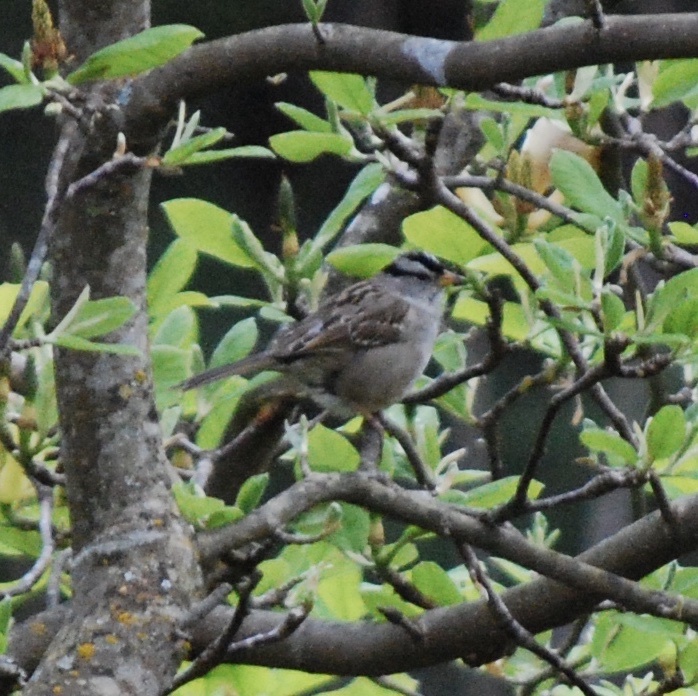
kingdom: Animalia
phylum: Chordata
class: Aves
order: Passeriformes
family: Passerellidae
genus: Zonotrichia
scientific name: Zonotrichia leucophrys
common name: White-crowned sparrow
